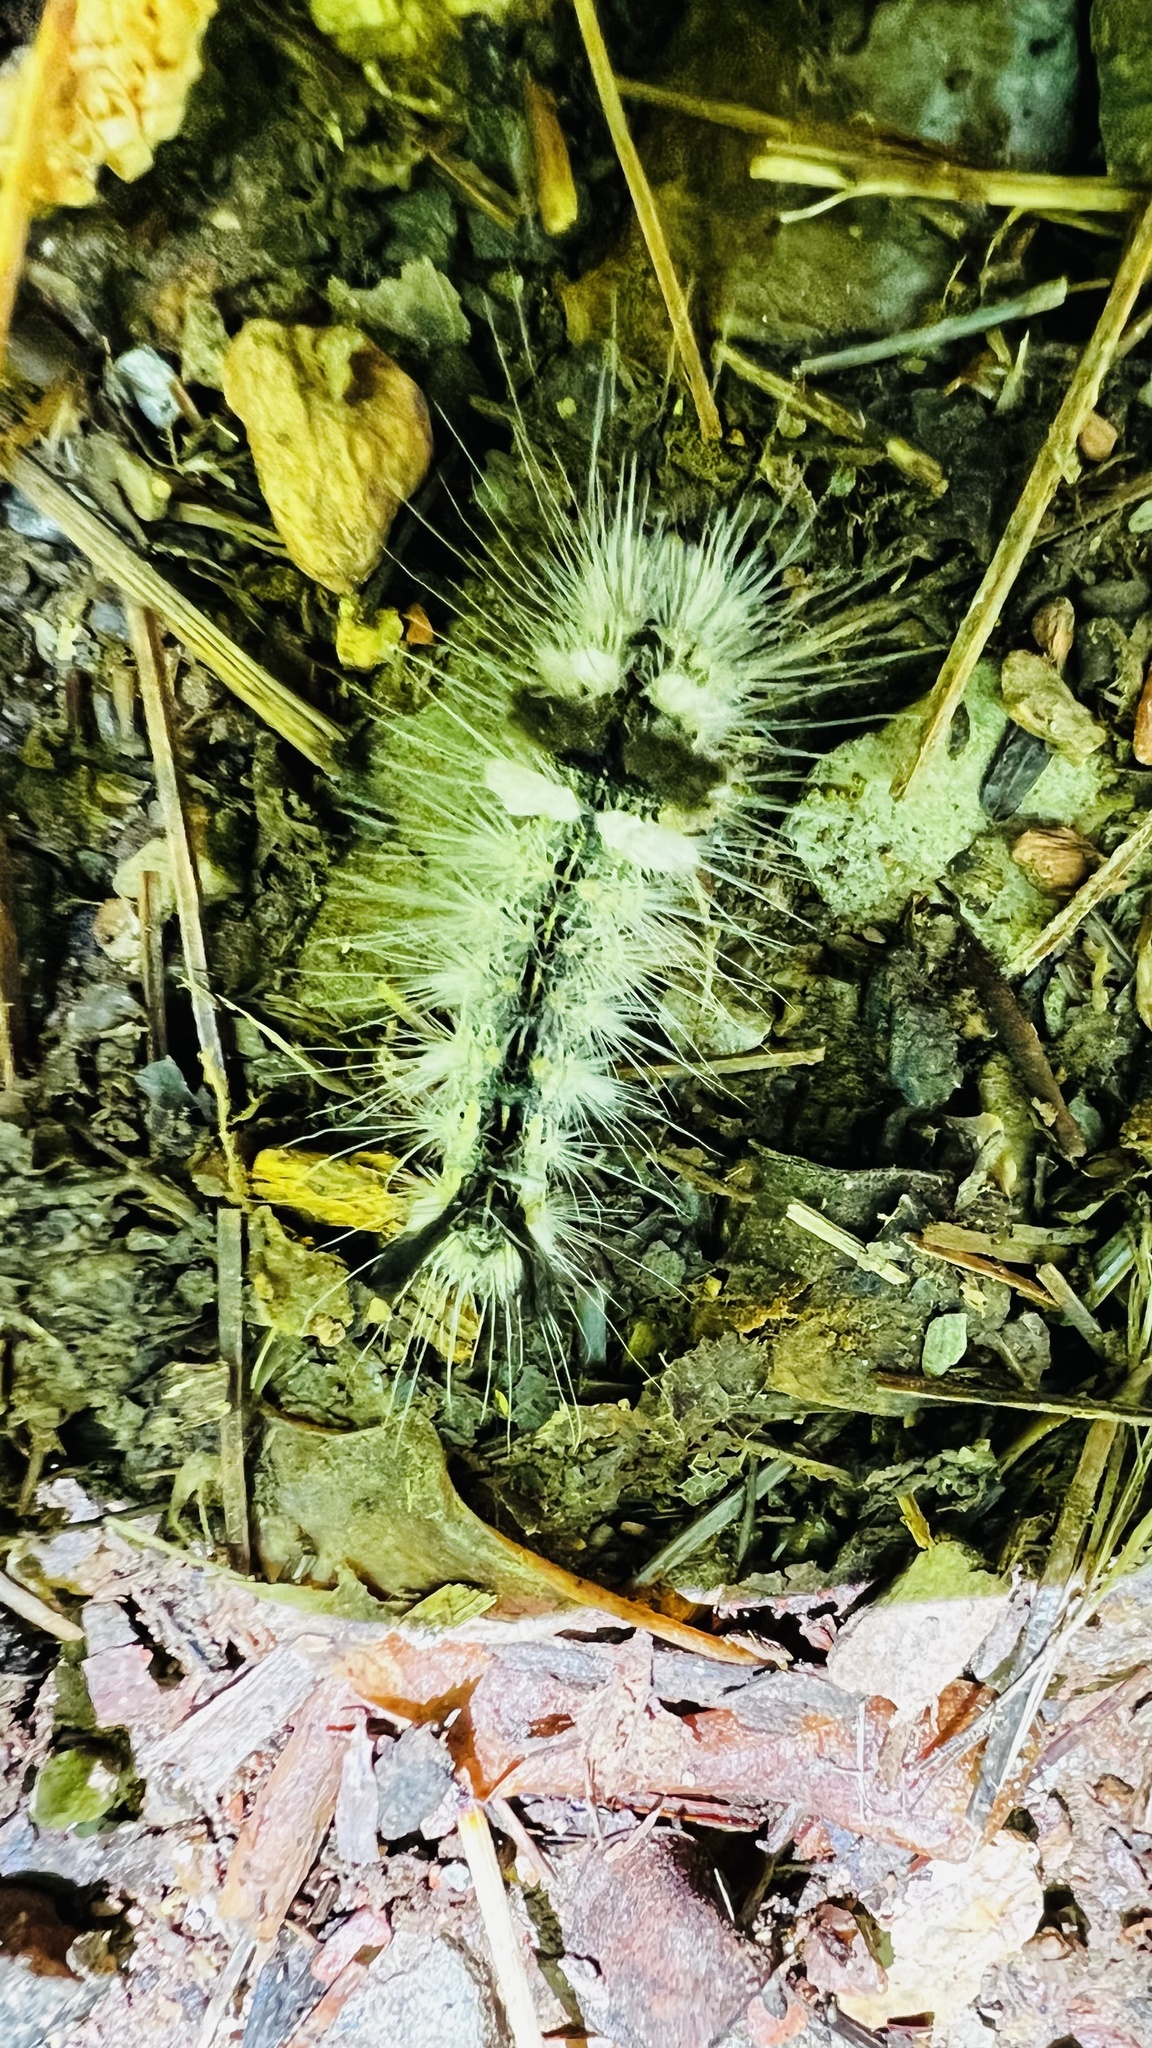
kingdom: Animalia
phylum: Arthropoda
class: Insecta
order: Lepidoptera
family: Noctuidae
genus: Acronicta
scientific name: Acronicta impleta
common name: Powdered dagger
